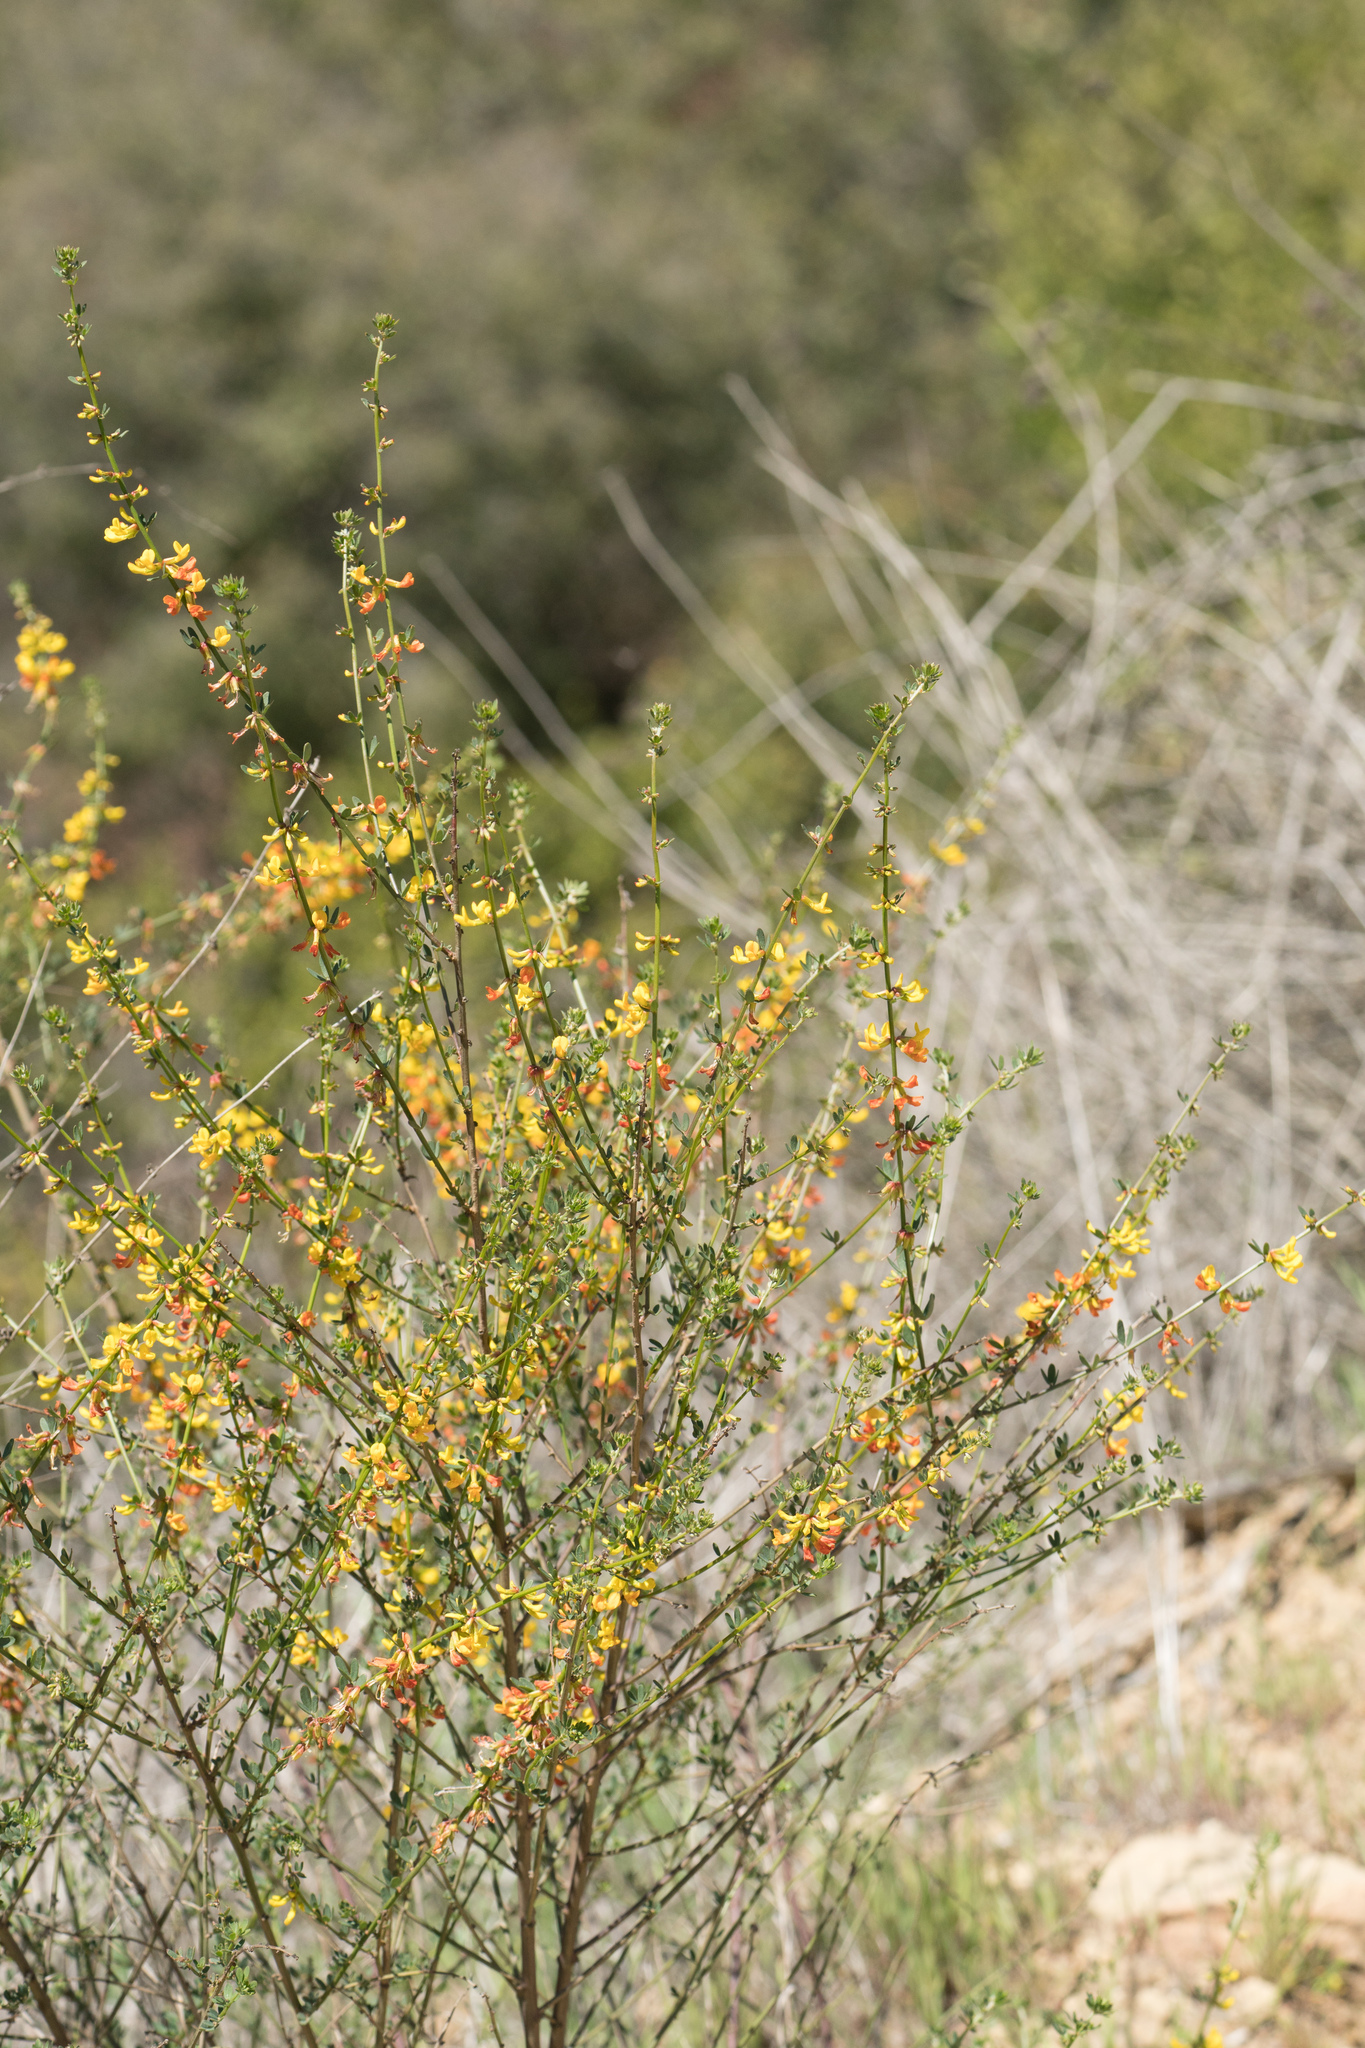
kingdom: Plantae
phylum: Tracheophyta
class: Magnoliopsida
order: Fabales
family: Fabaceae
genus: Acmispon
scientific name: Acmispon glaber
